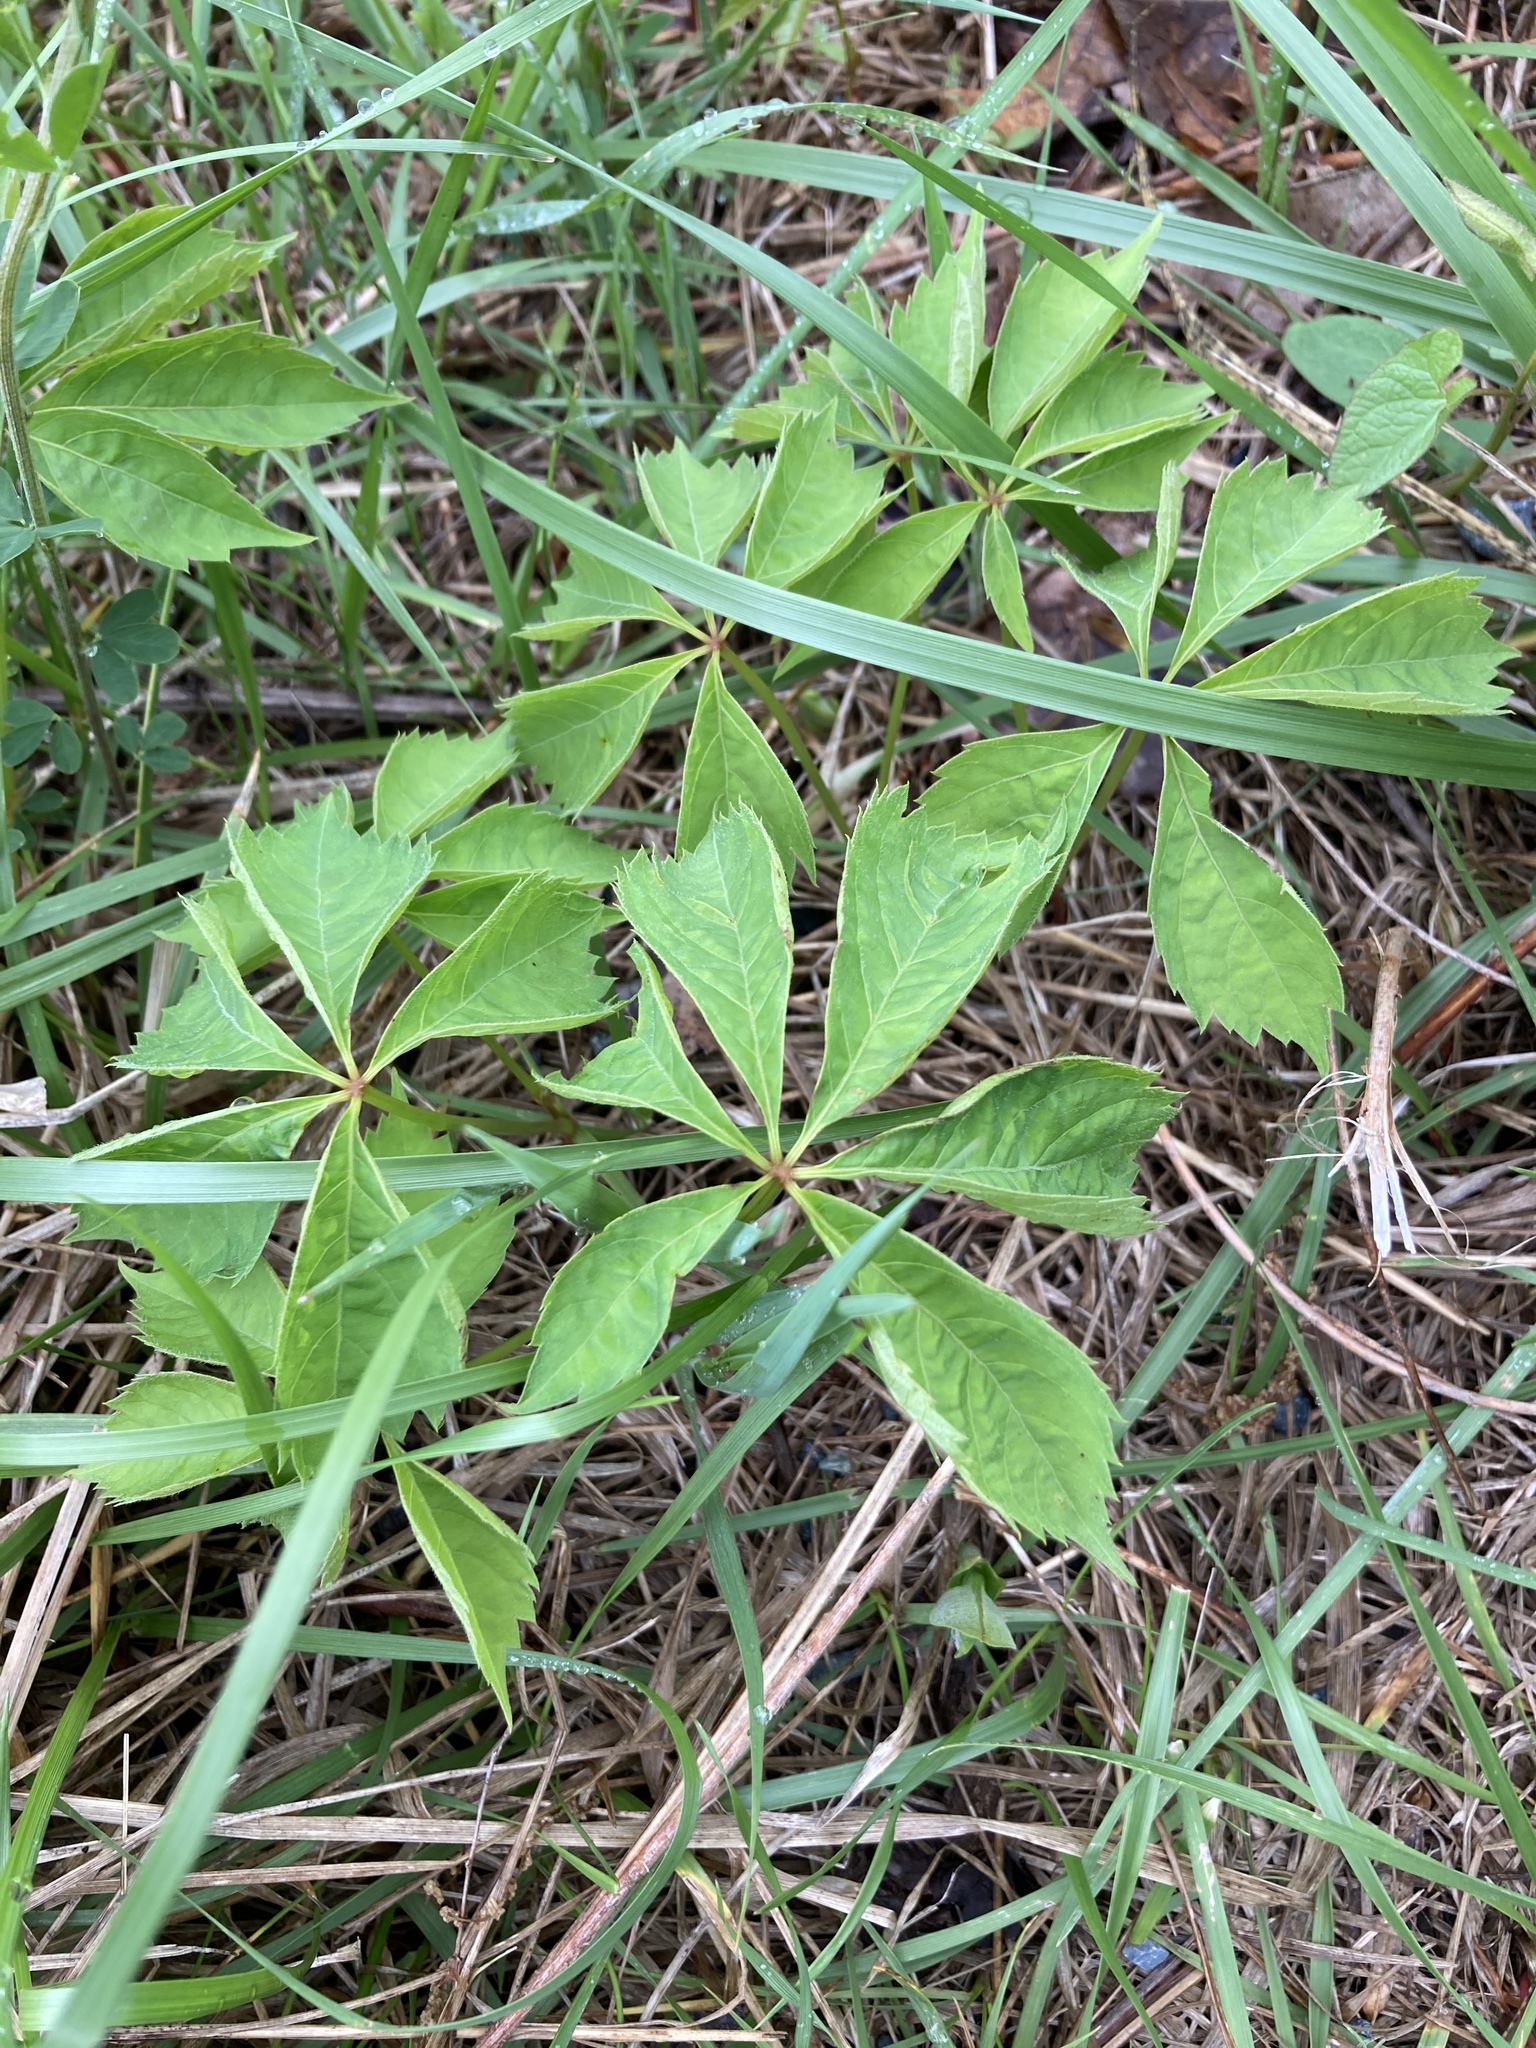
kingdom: Plantae
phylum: Tracheophyta
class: Magnoliopsida
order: Vitales
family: Vitaceae
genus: Parthenocissus
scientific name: Parthenocissus quinquefolia
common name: Virginia-creeper
